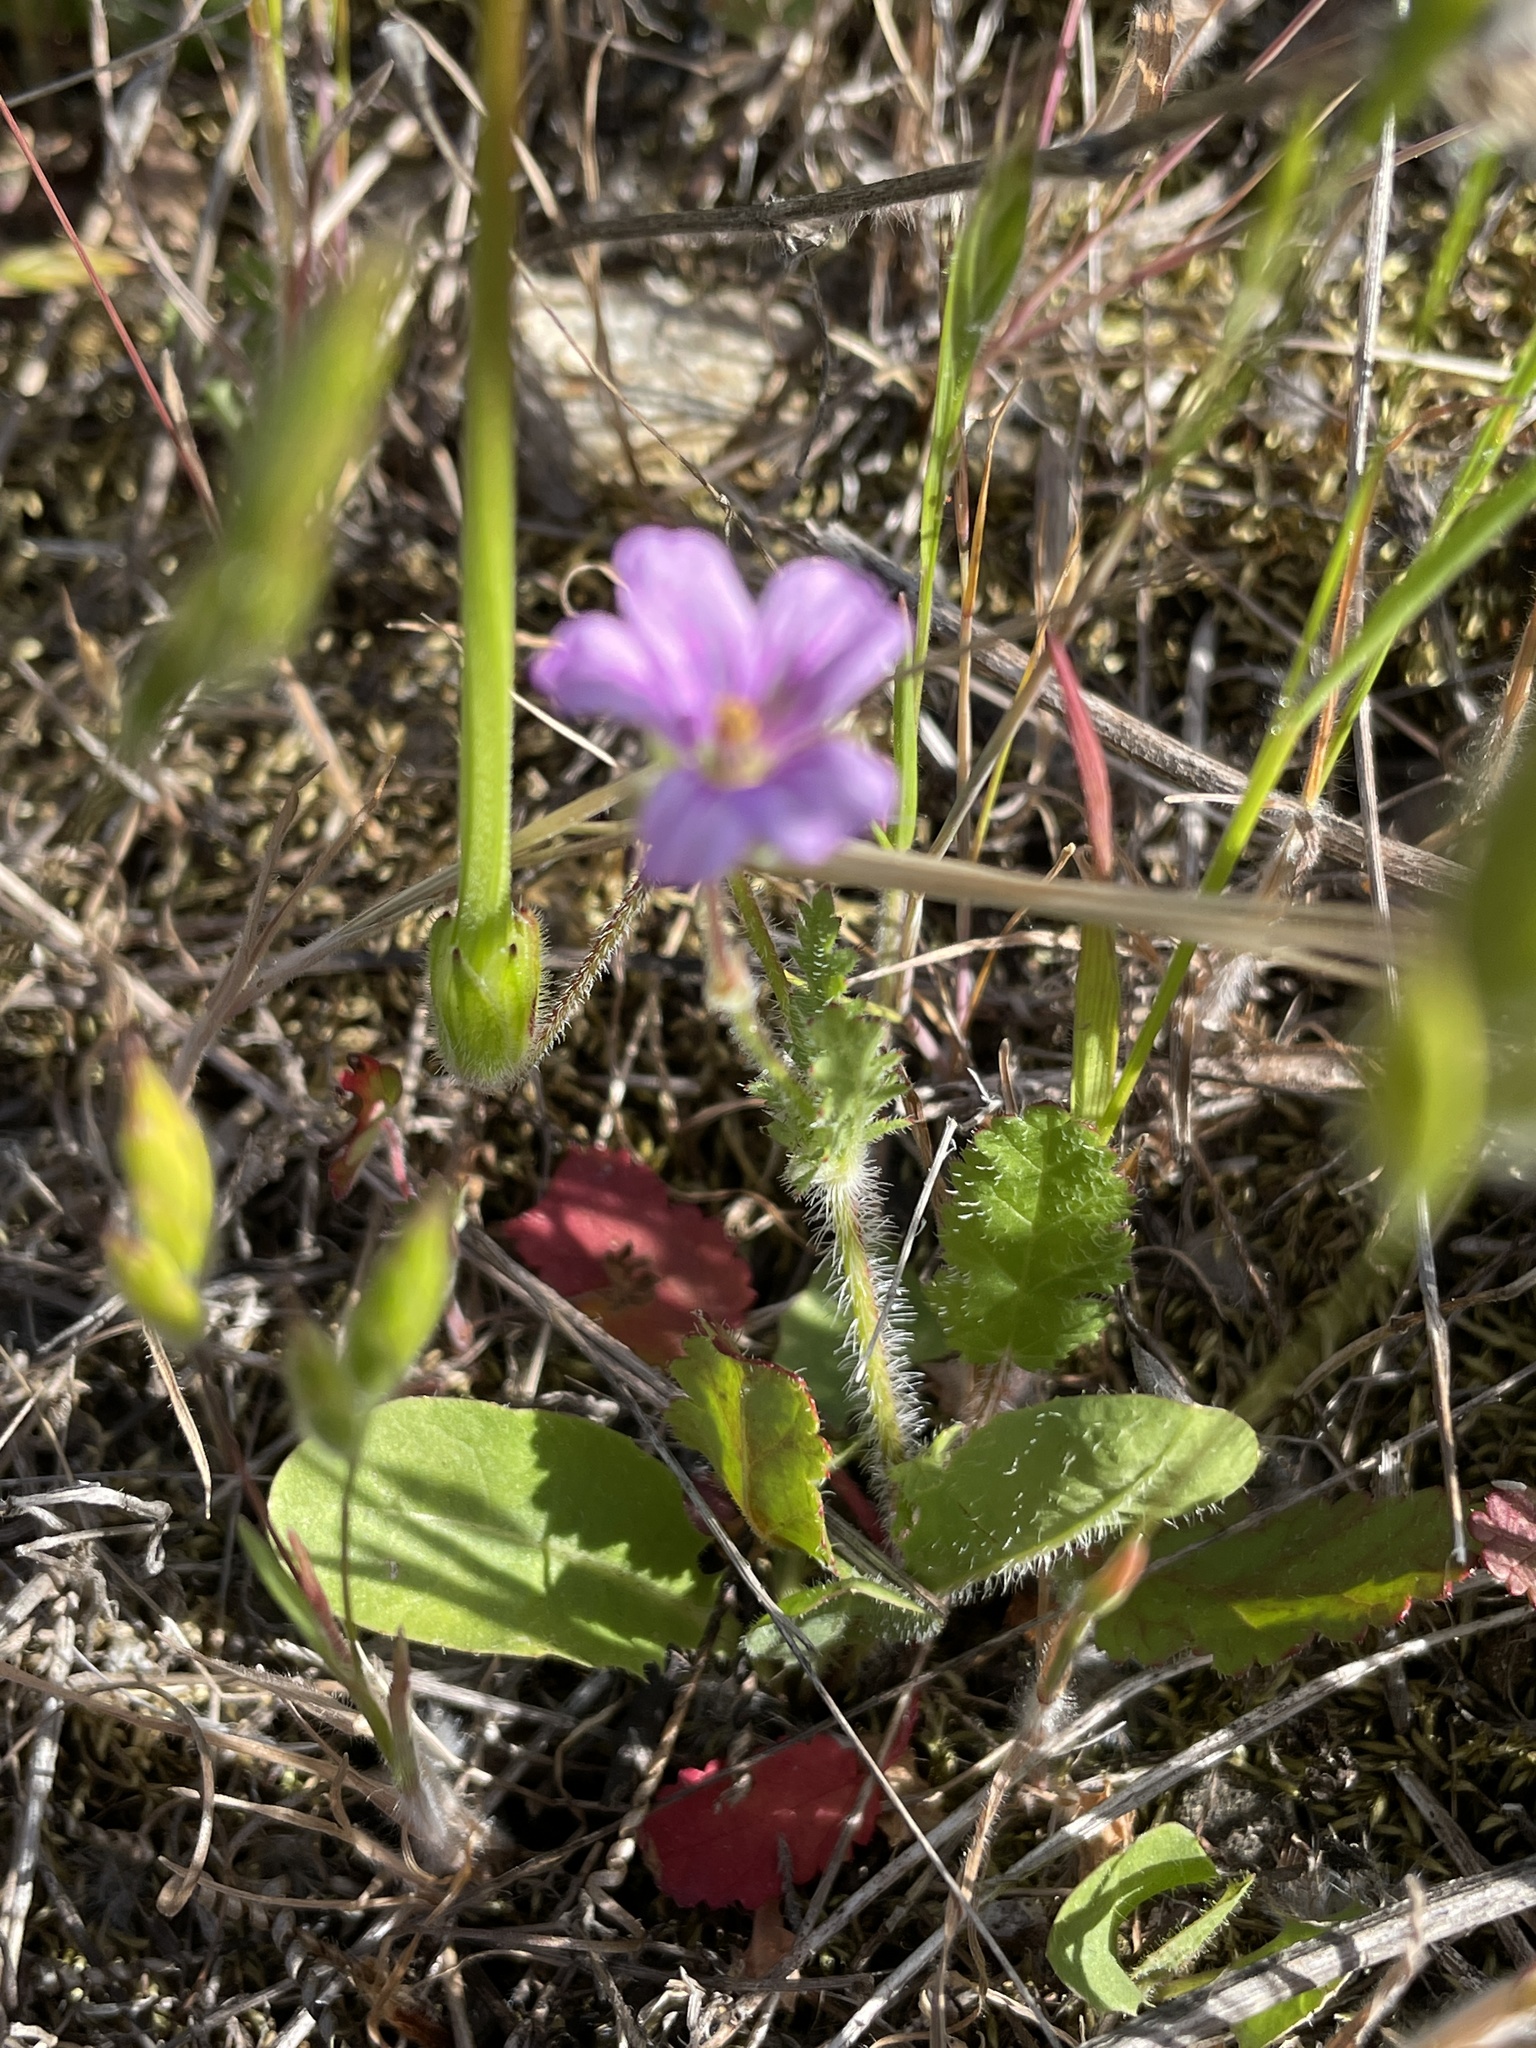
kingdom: Plantae
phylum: Tracheophyta
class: Magnoliopsida
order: Geraniales
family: Geraniaceae
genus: Erodium
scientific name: Erodium botrys
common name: Mediterranean stork's-bill
